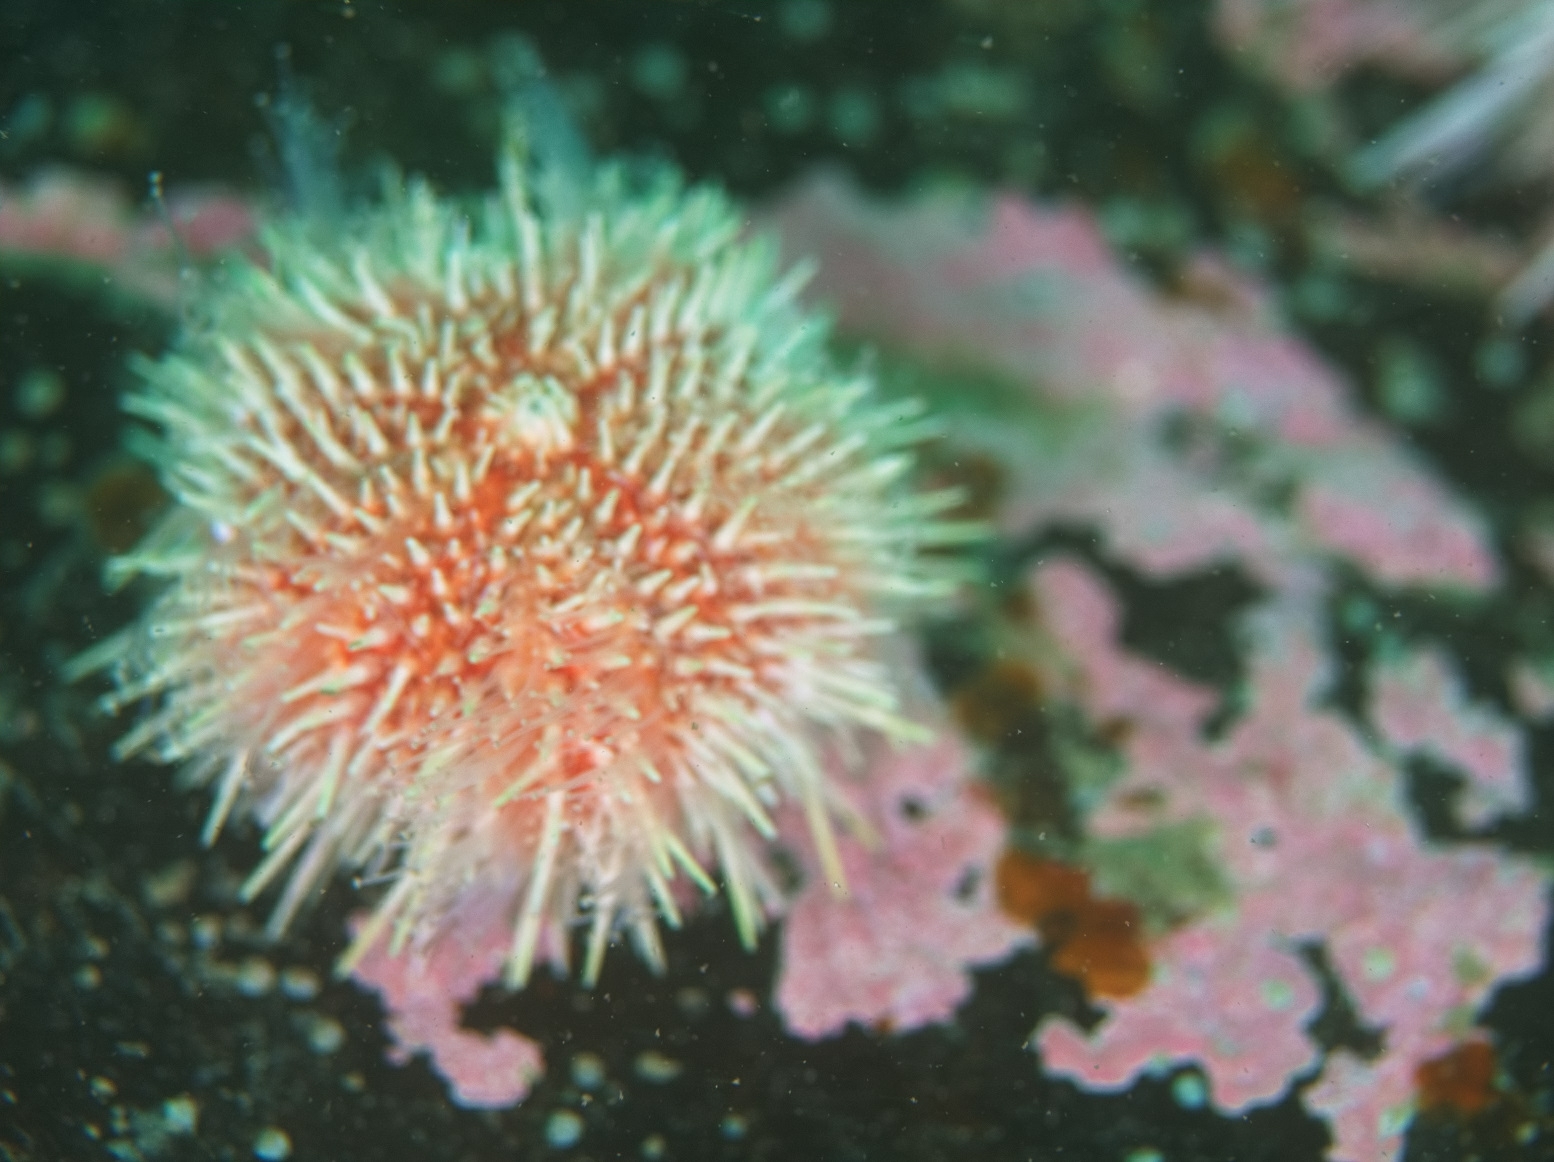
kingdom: Animalia
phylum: Echinodermata
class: Echinoidea
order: Camarodonta
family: Echinidae
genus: Echinus
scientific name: Echinus esculentus
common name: Edible sea urchin
